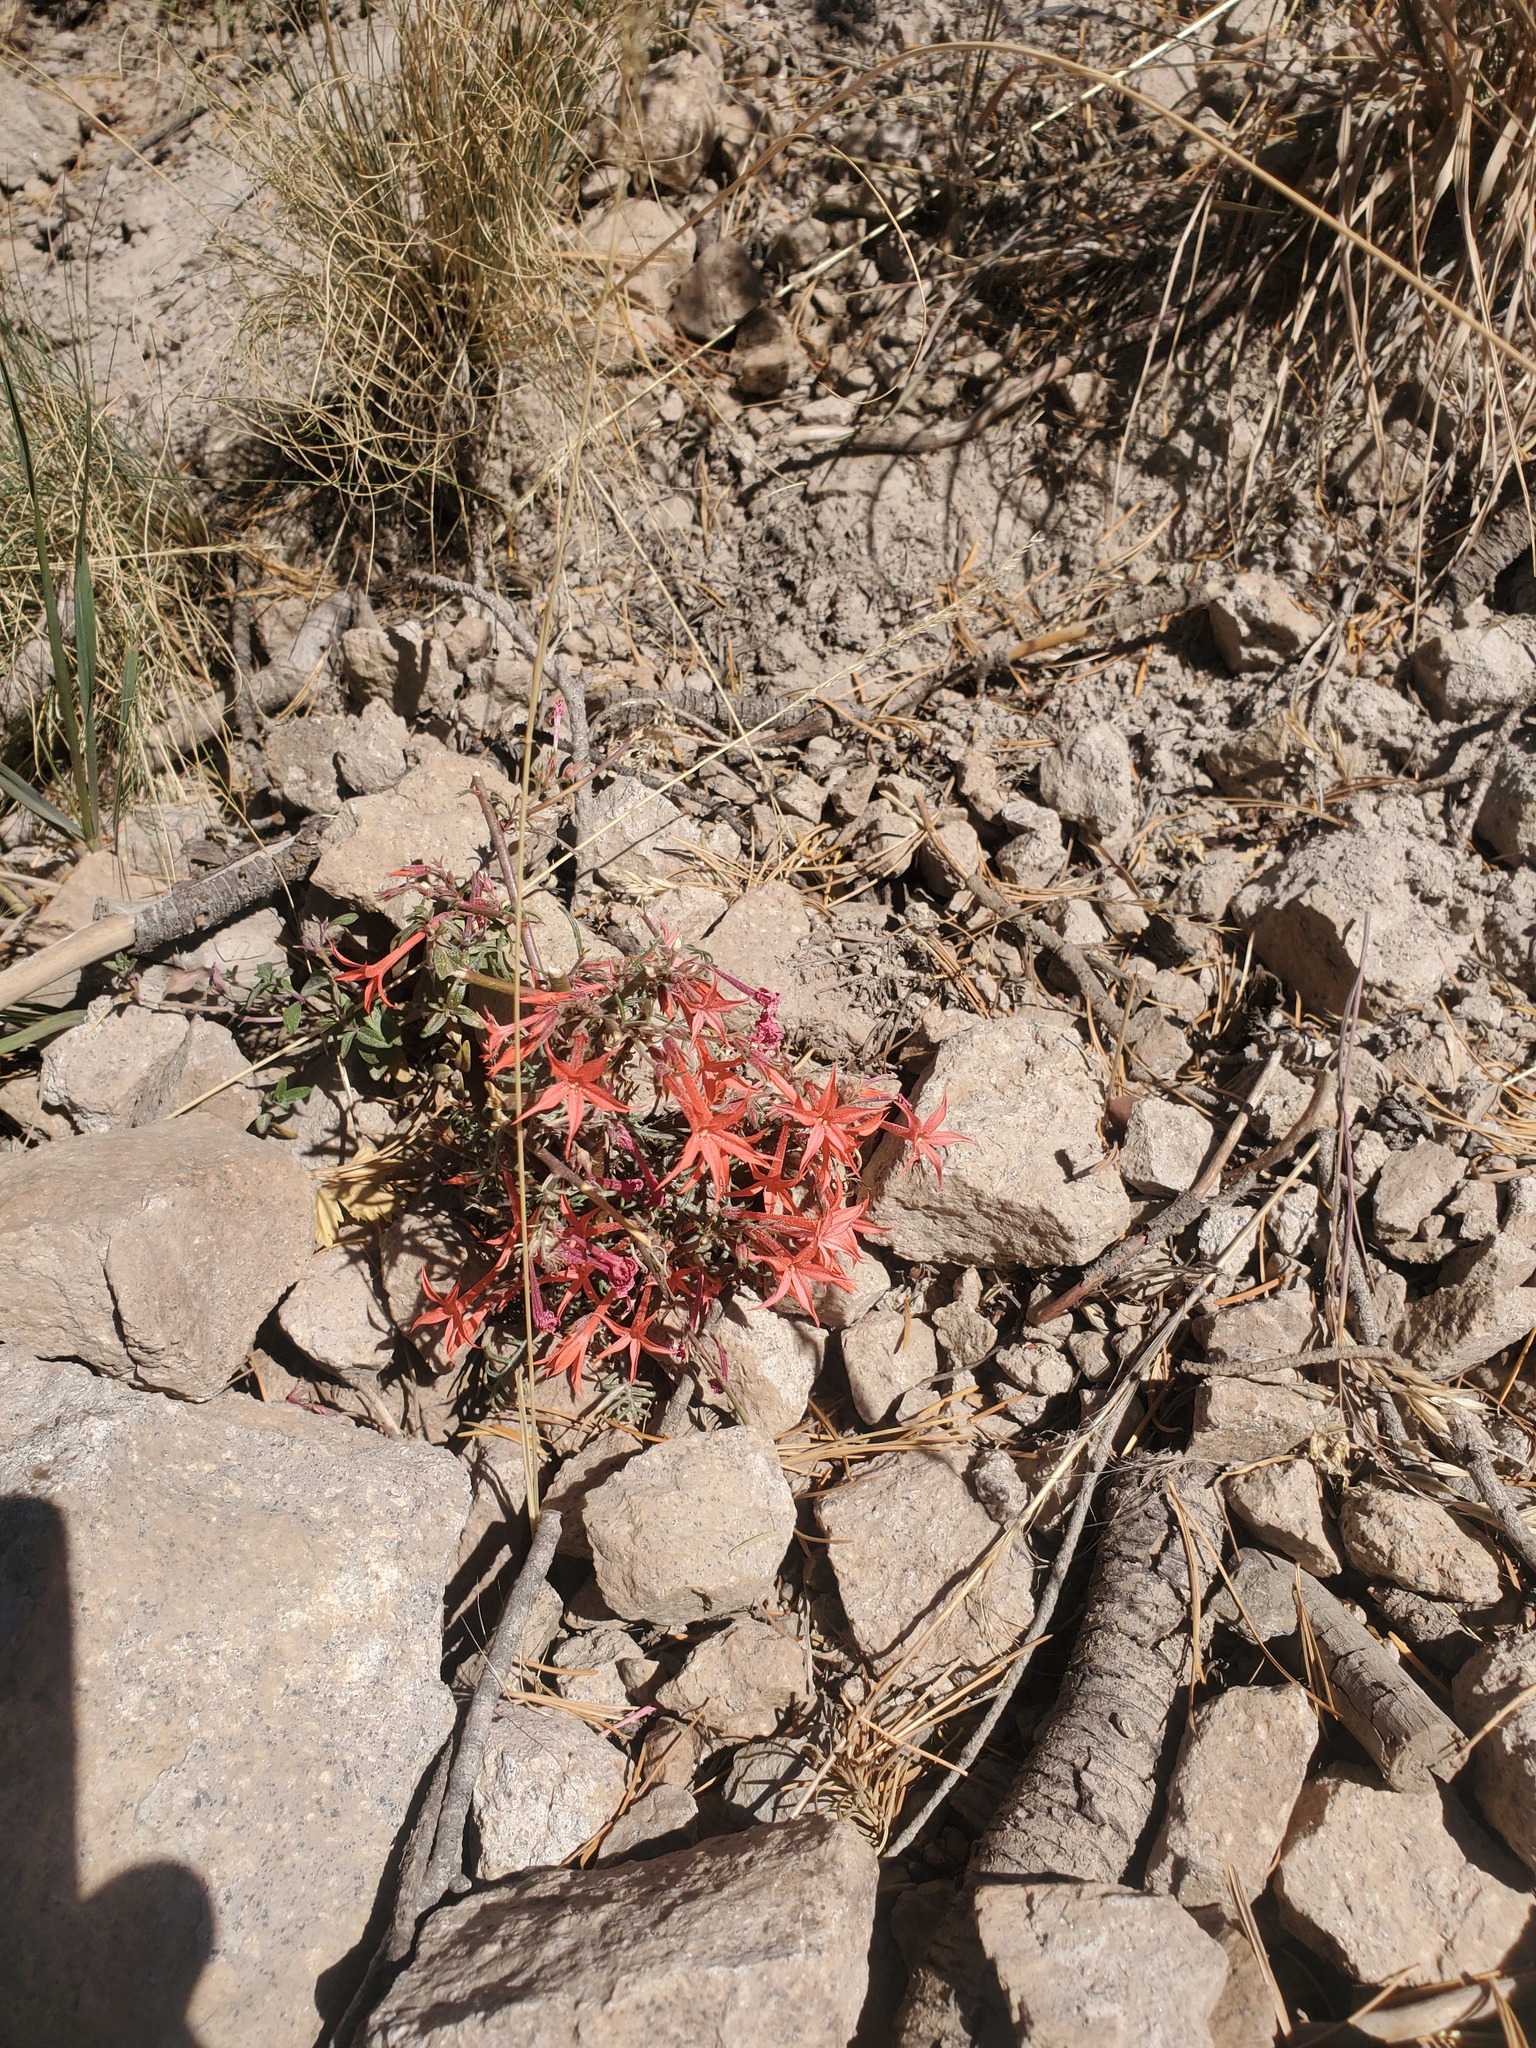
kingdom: Plantae
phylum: Tracheophyta
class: Magnoliopsida
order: Ericales
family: Polemoniaceae
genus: Ipomopsis
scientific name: Ipomopsis arizonica
